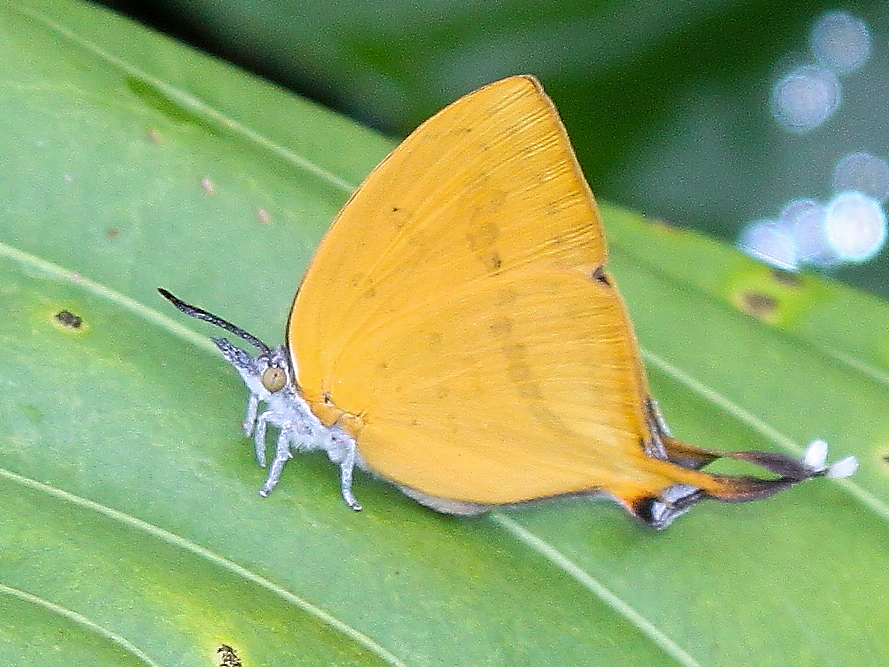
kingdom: Animalia
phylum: Arthropoda
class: Insecta
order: Lepidoptera
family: Lycaenidae
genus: Loxura
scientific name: Loxura atymnus
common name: Common yamfly
